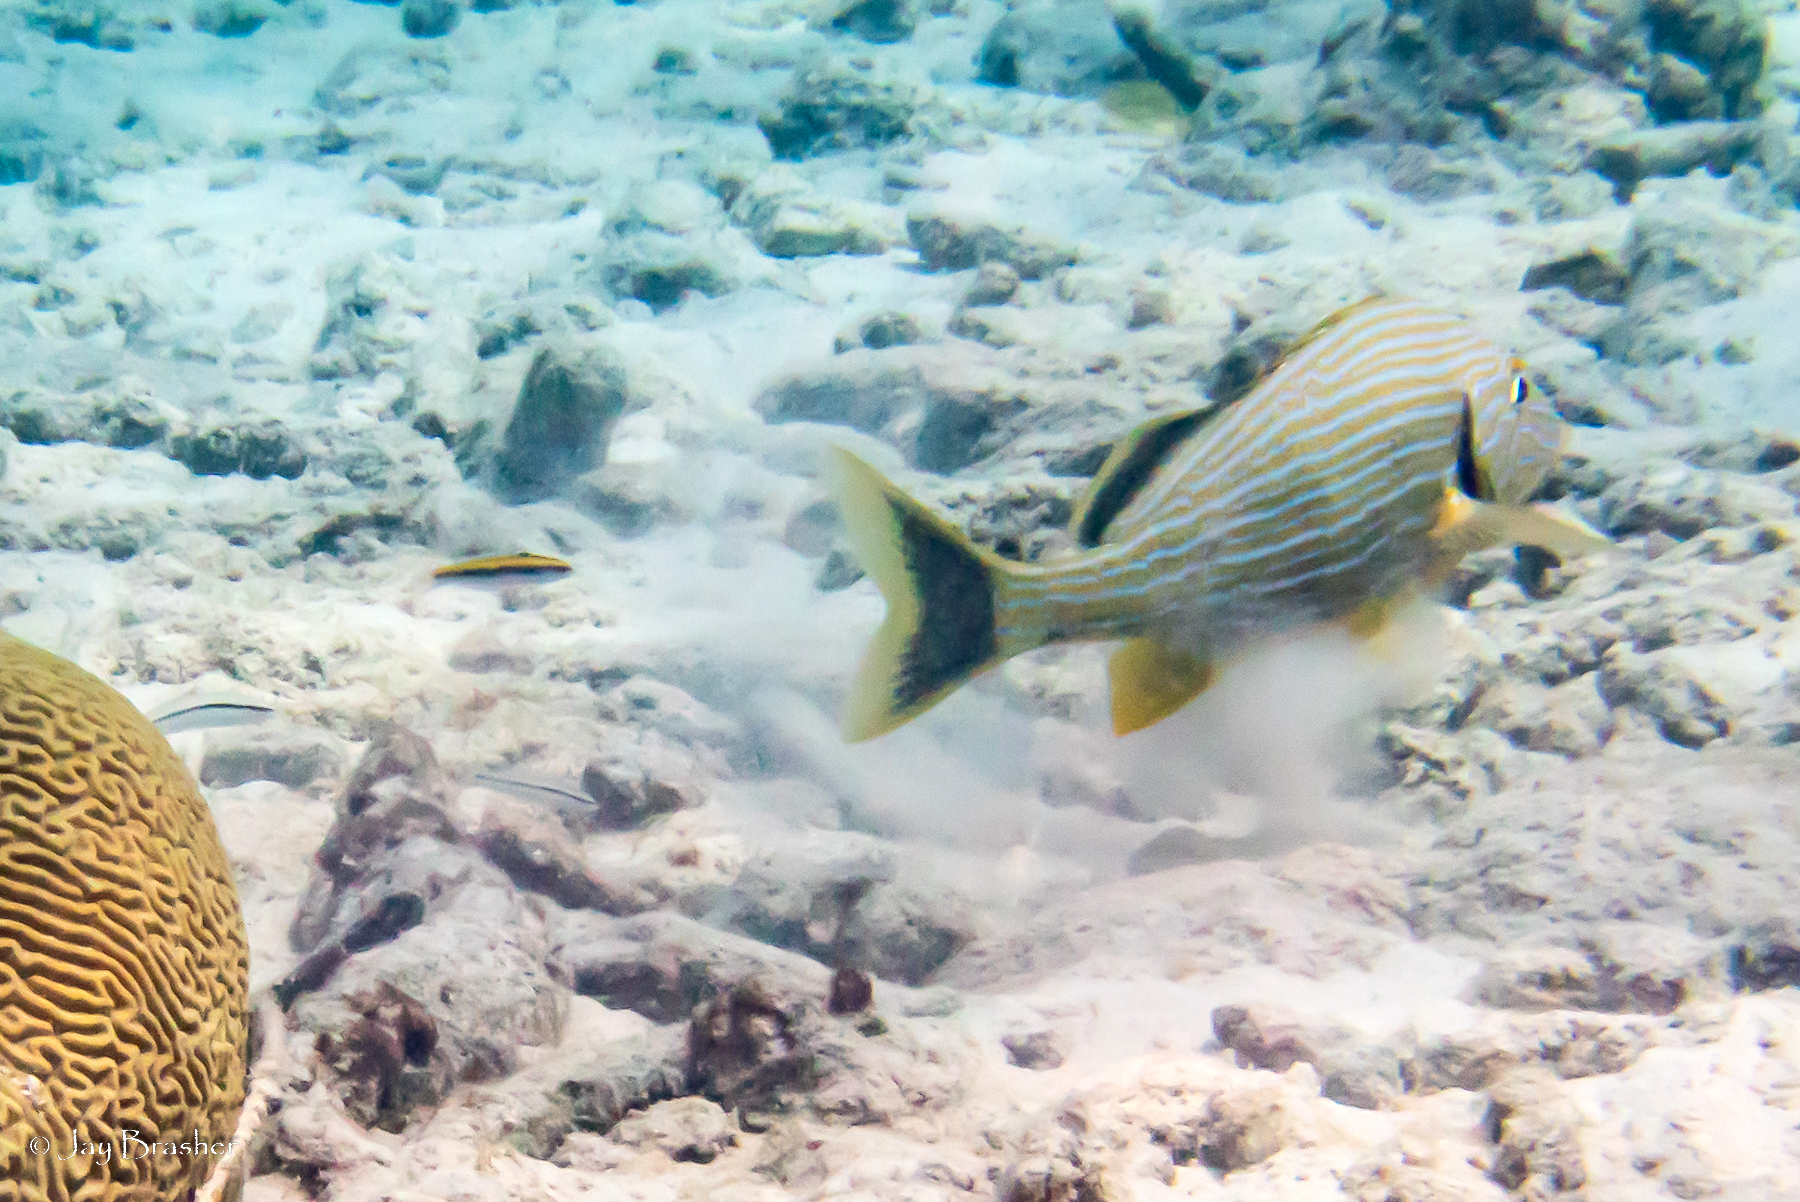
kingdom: Animalia
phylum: Chordata
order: Perciformes
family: Haemulidae
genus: Haemulon
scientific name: Haemulon sciurus
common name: Bluestriped grunt
